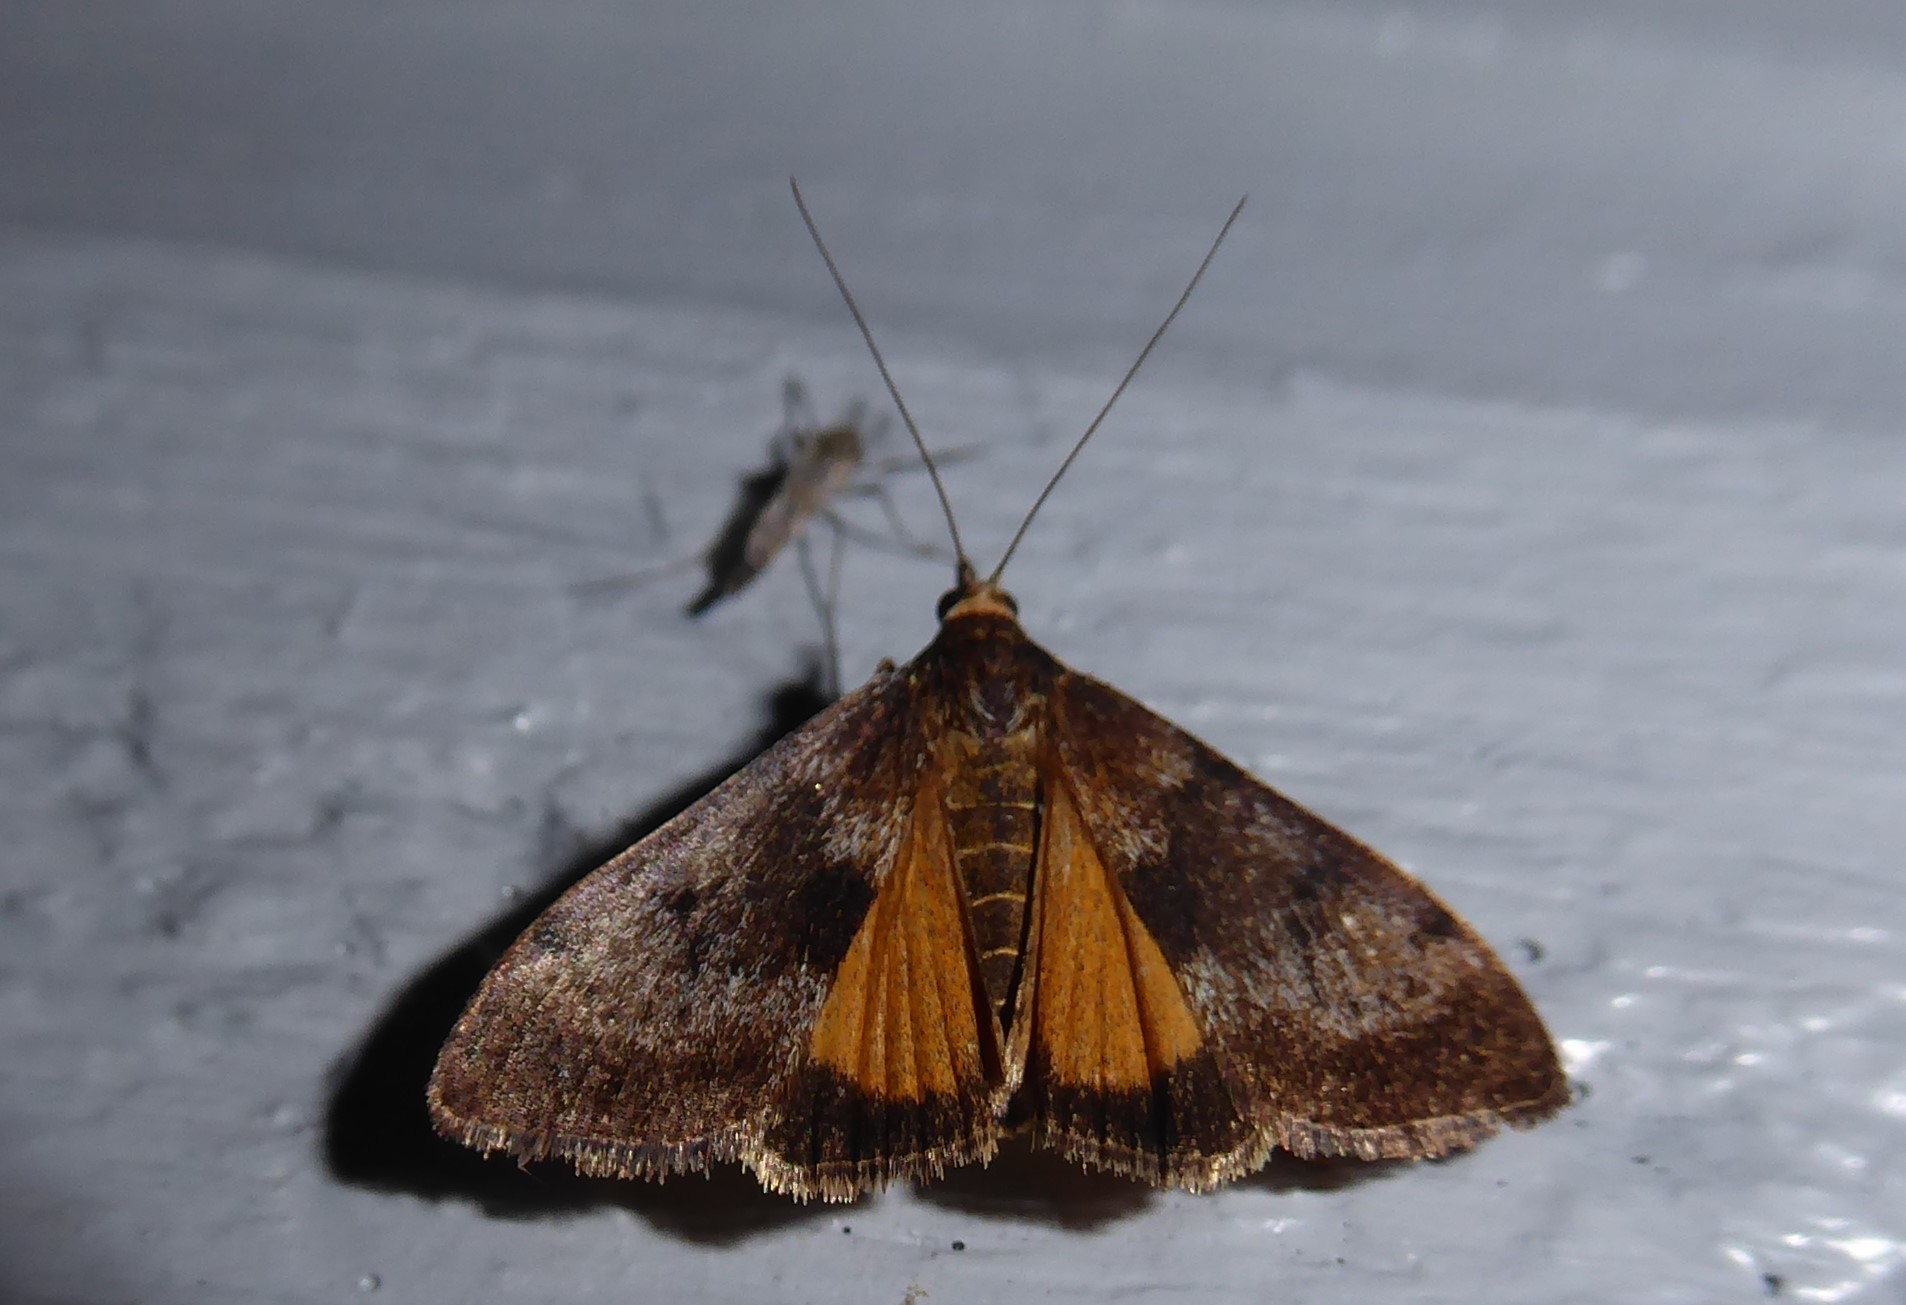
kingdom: Animalia
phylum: Arthropoda
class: Insecta
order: Lepidoptera
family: Crambidae
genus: Uresiphita
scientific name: Uresiphita
